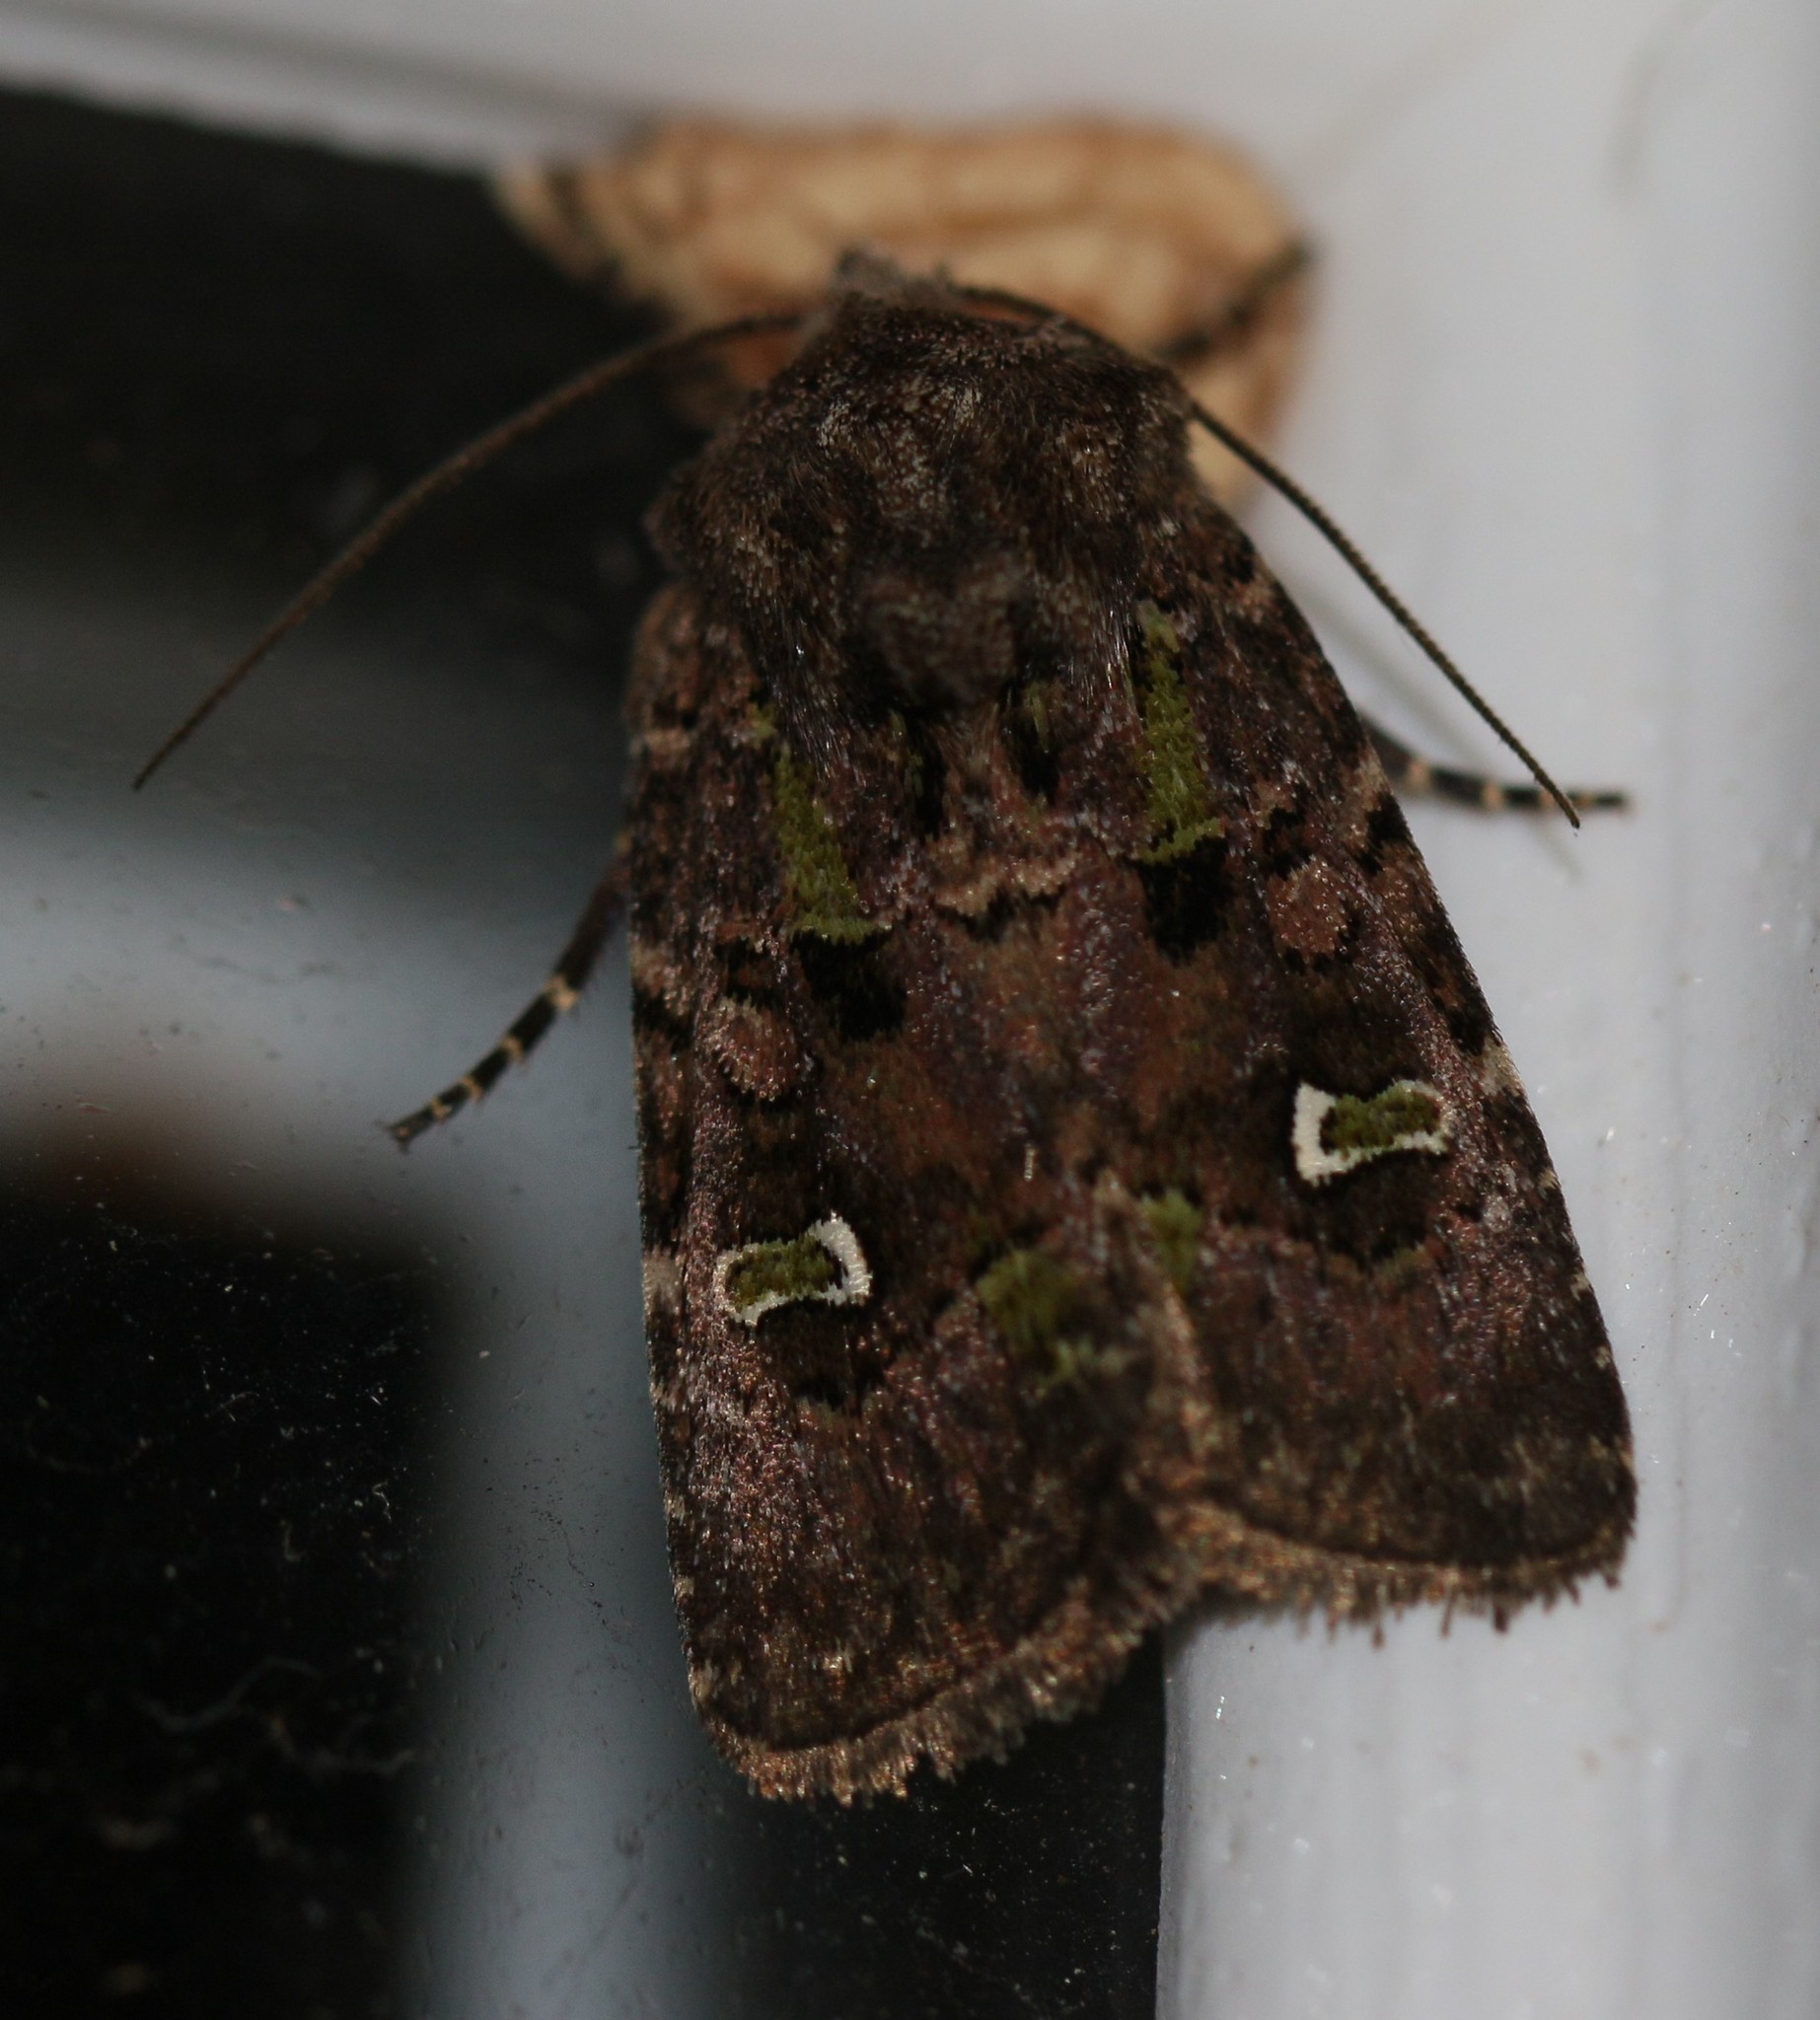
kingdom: Animalia
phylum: Arthropoda
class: Insecta
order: Lepidoptera
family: Noctuidae
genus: Lacinipolia
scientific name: Lacinipolia renigera
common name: Kidney-spotted minor
